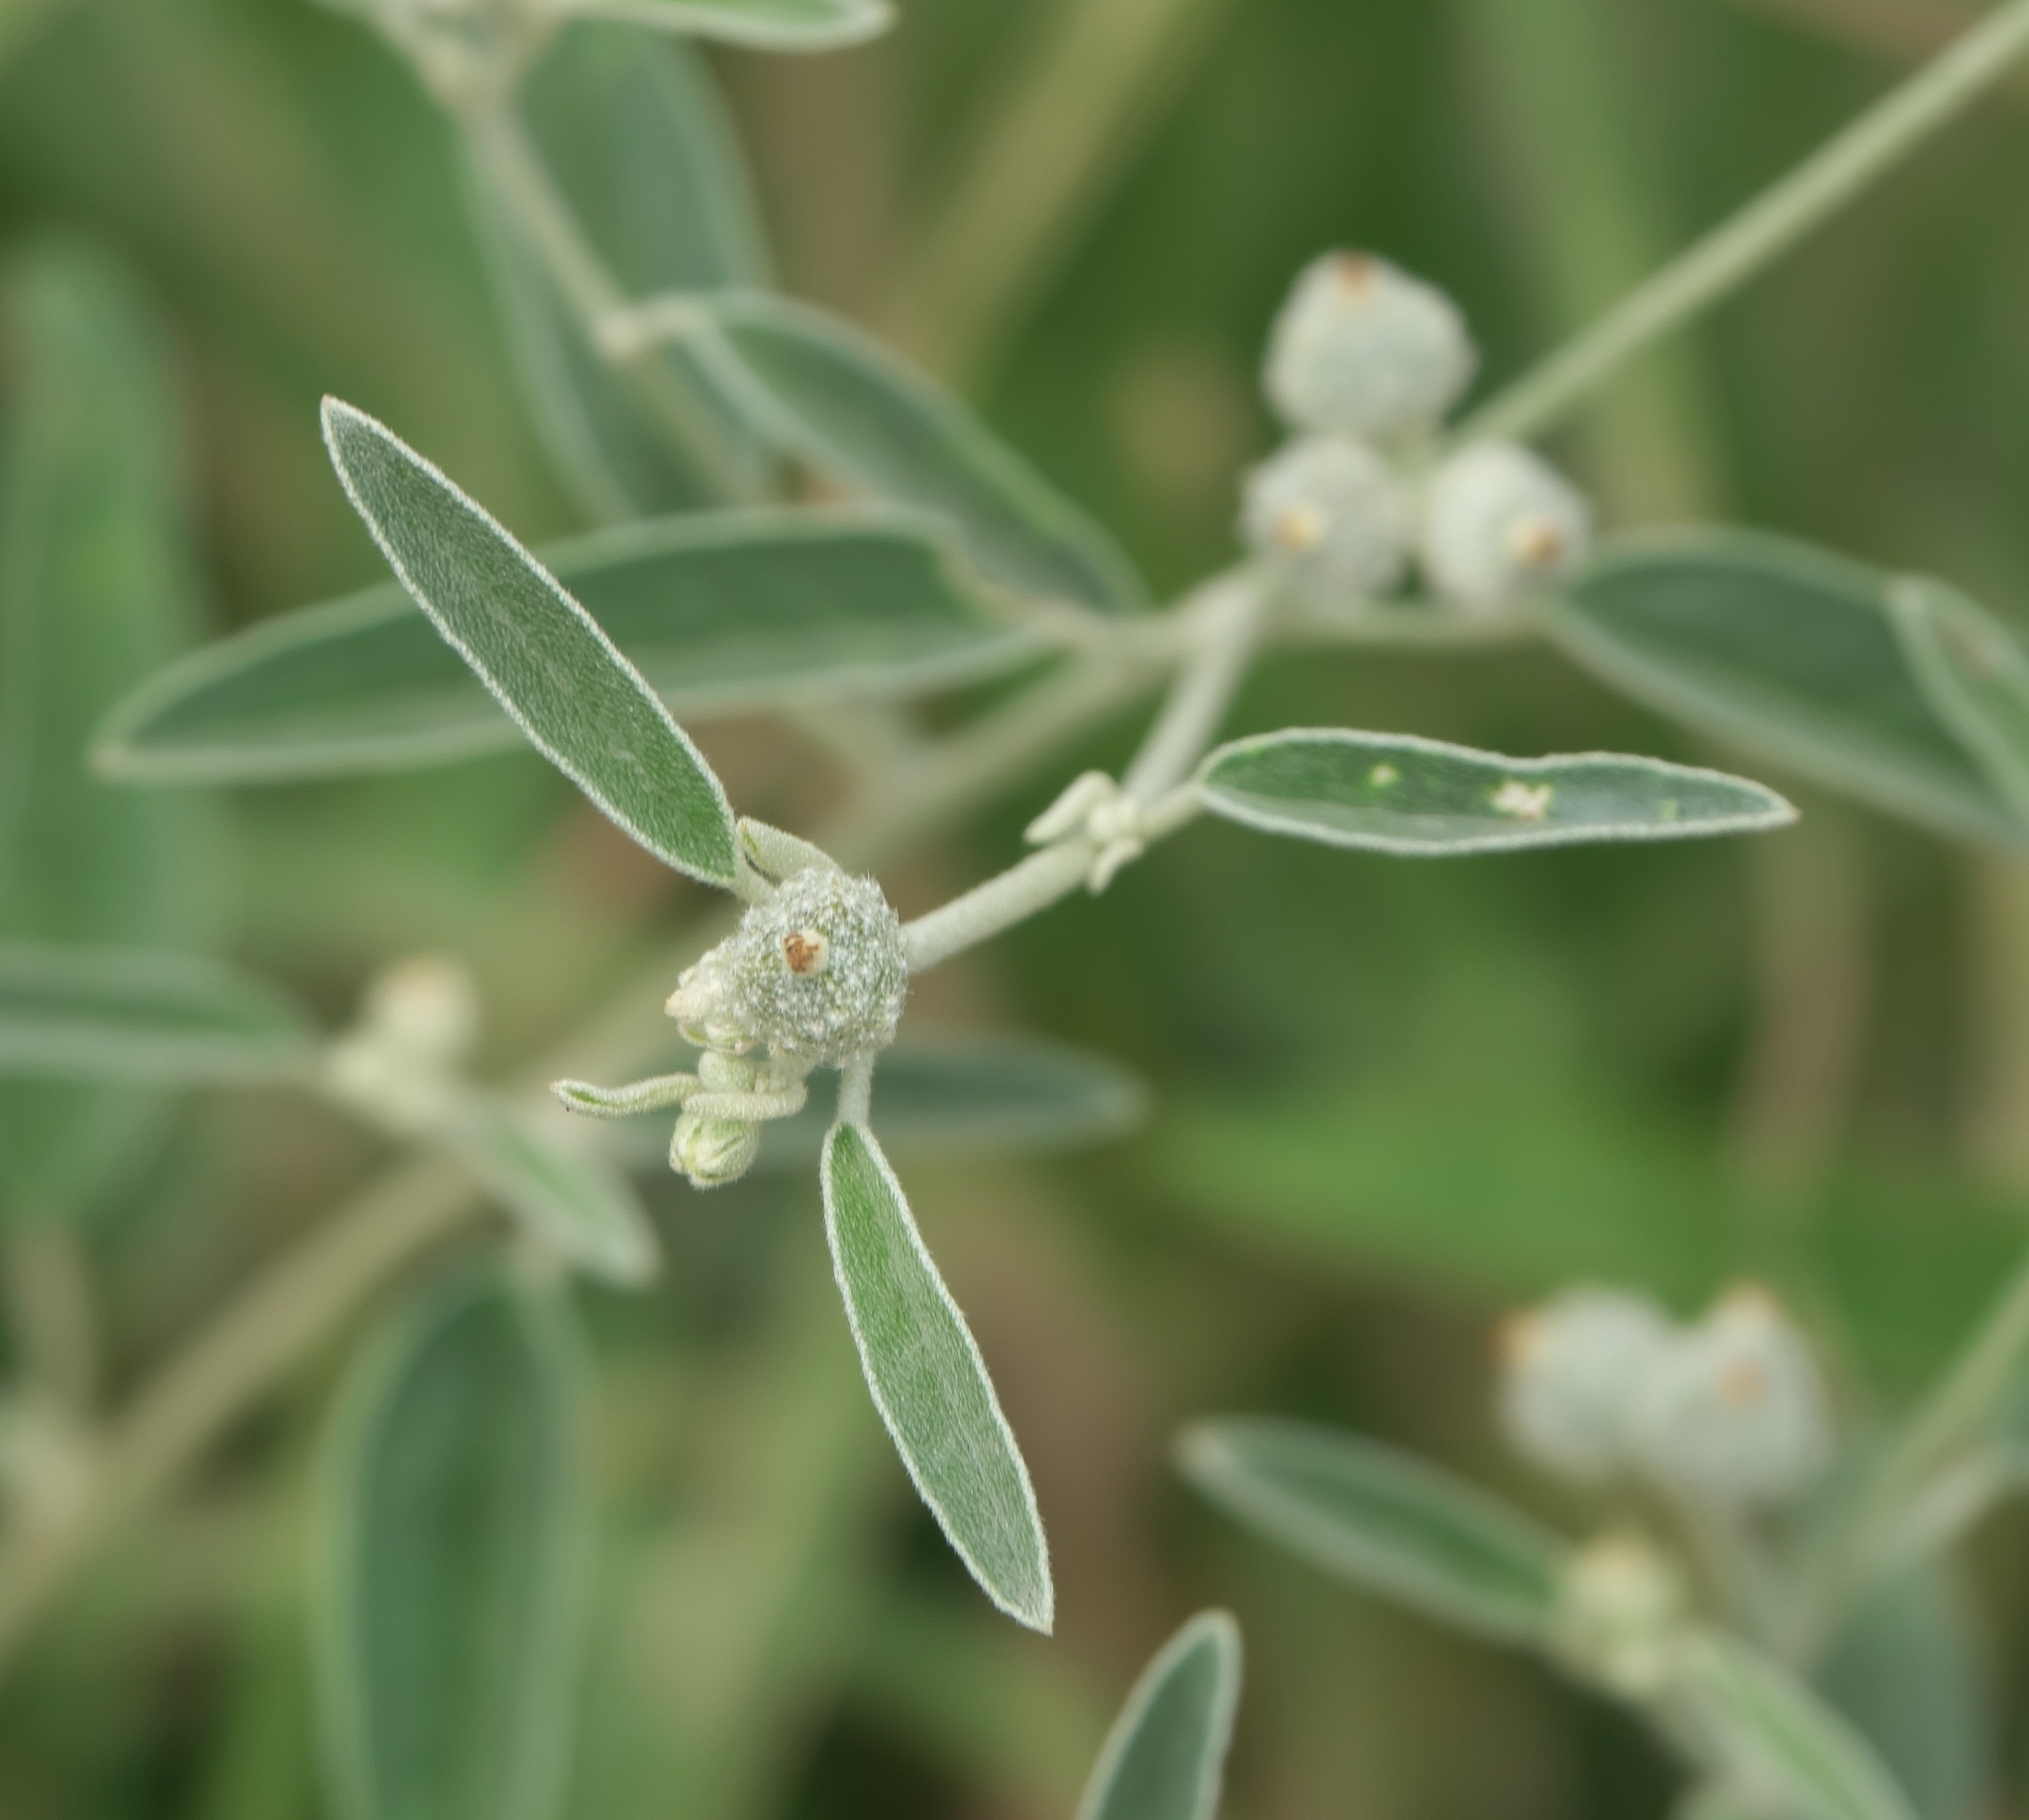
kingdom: Plantae
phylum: Tracheophyta
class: Magnoliopsida
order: Malpighiales
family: Euphorbiaceae
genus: Croton
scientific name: Croton texensis
